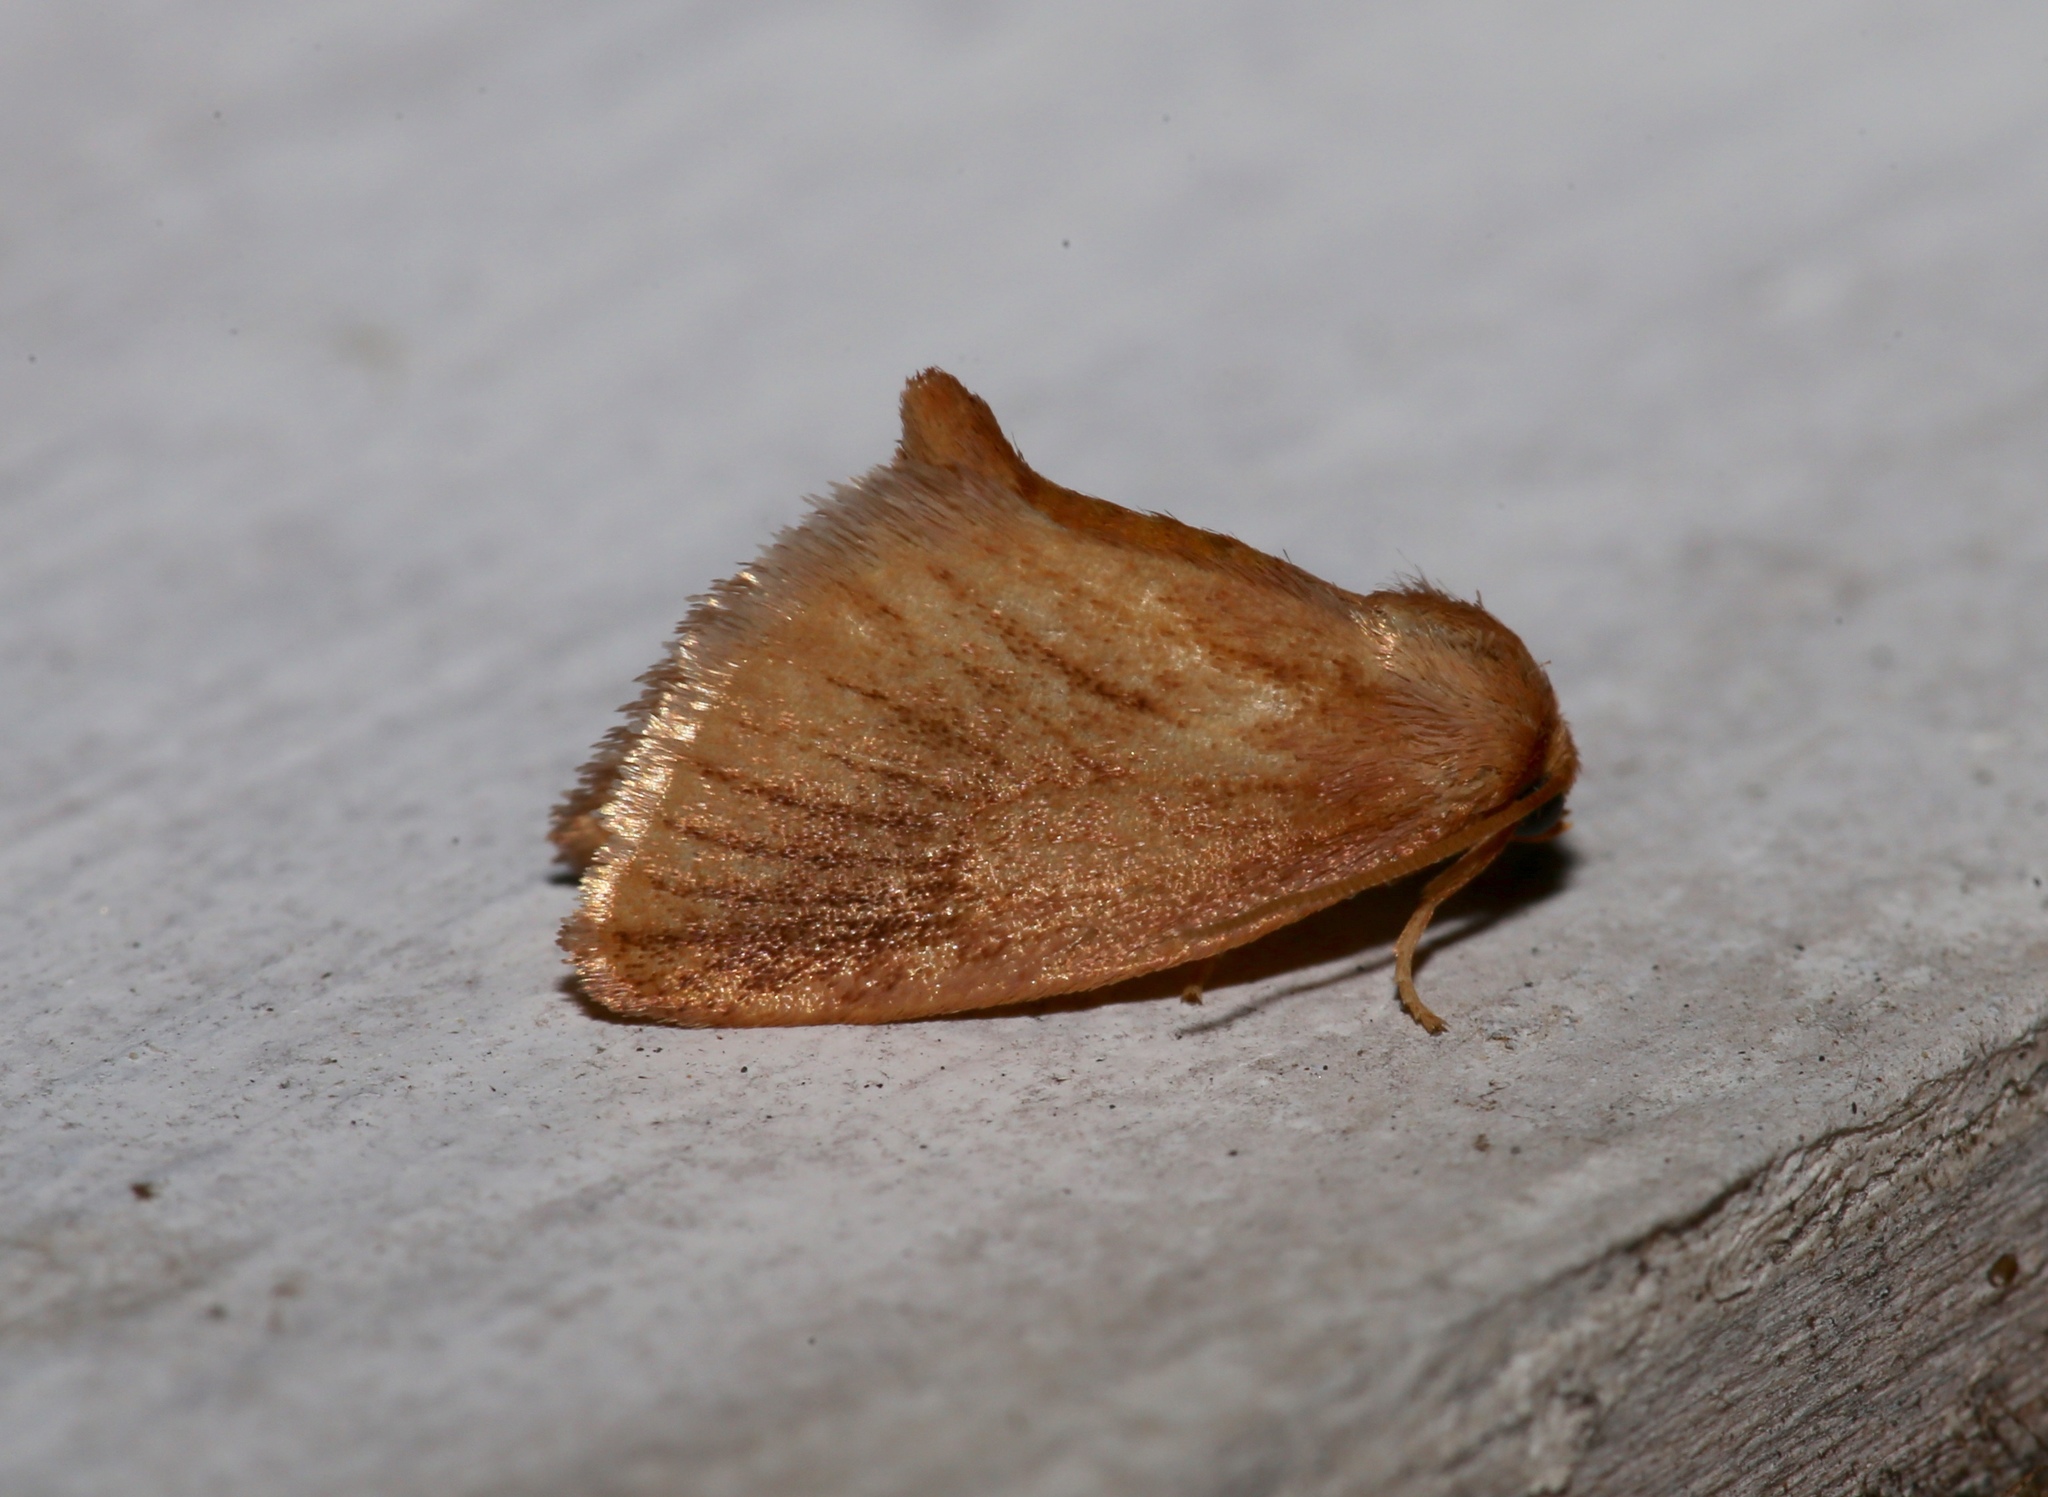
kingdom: Animalia
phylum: Arthropoda
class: Insecta
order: Lepidoptera
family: Limacodidae
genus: Tortricidia
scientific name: Tortricidia testacea
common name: Early button slug moth
